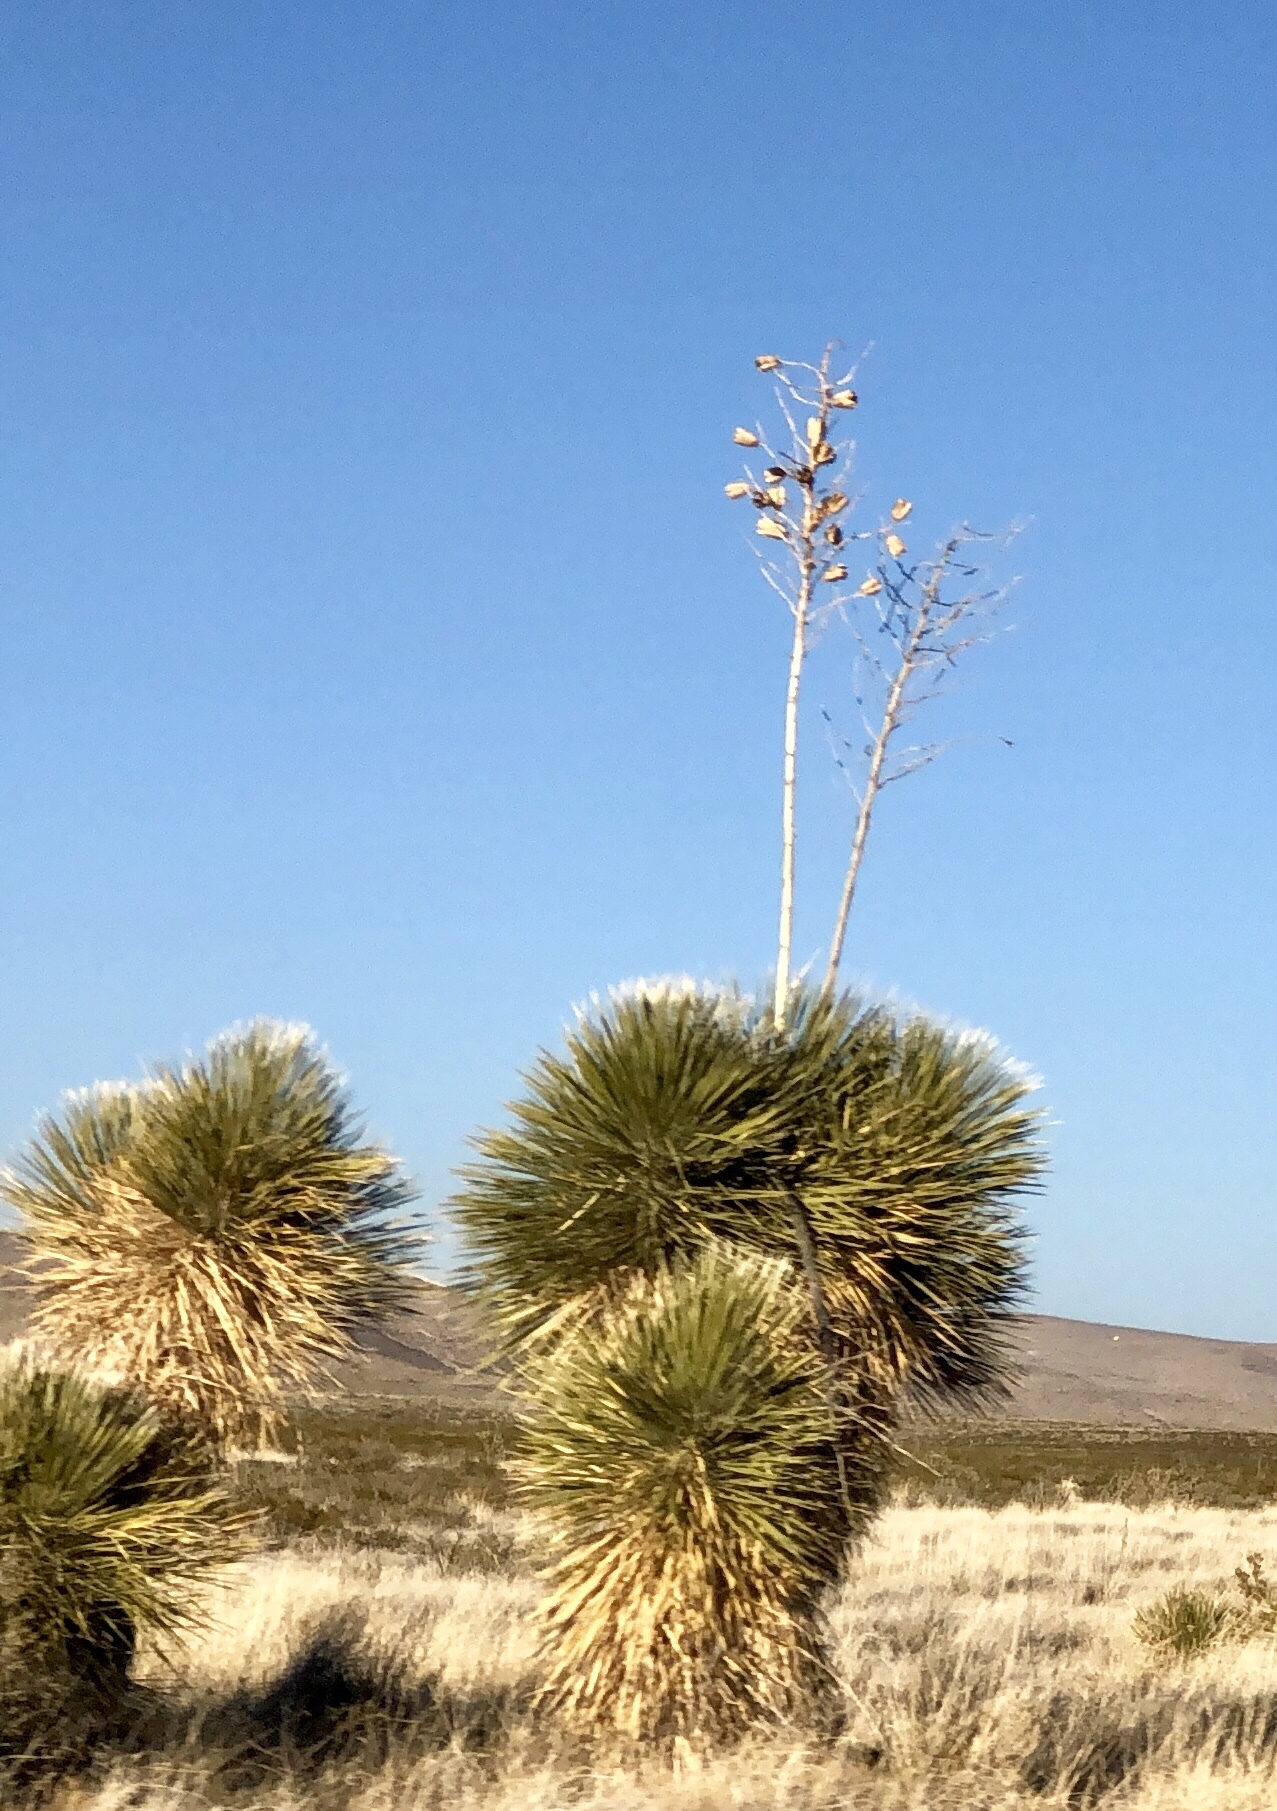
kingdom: Plantae
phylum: Tracheophyta
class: Liliopsida
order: Asparagales
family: Asparagaceae
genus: Yucca
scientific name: Yucca elata
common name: Palmella
